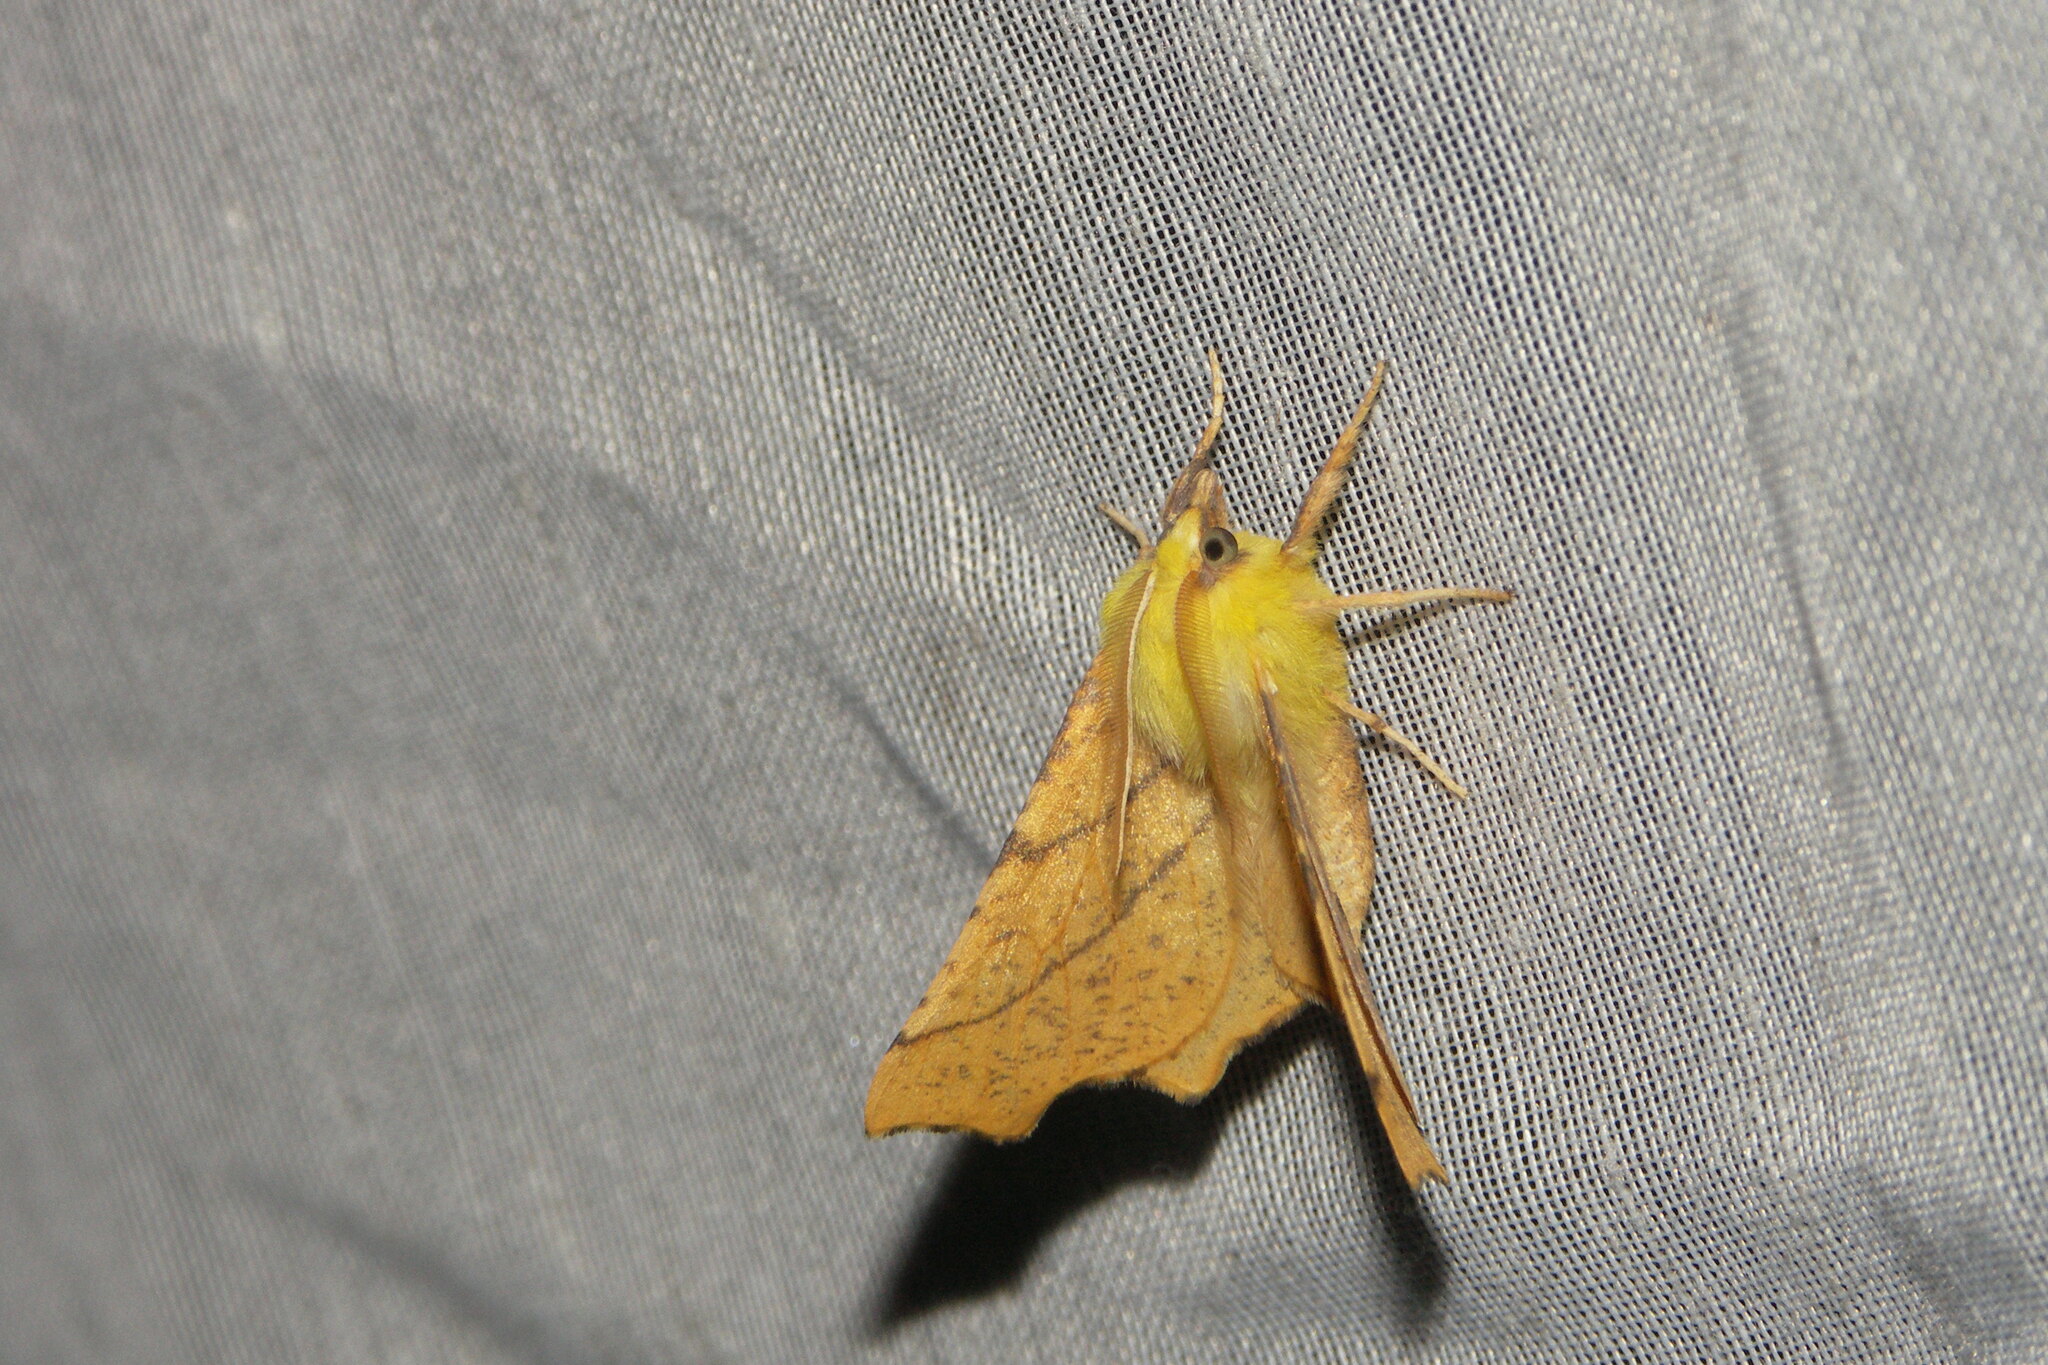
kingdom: Animalia
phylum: Arthropoda
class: Insecta
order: Lepidoptera
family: Geometridae
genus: Ennomos
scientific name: Ennomos alniaria
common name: Canary-shouldered thorn
